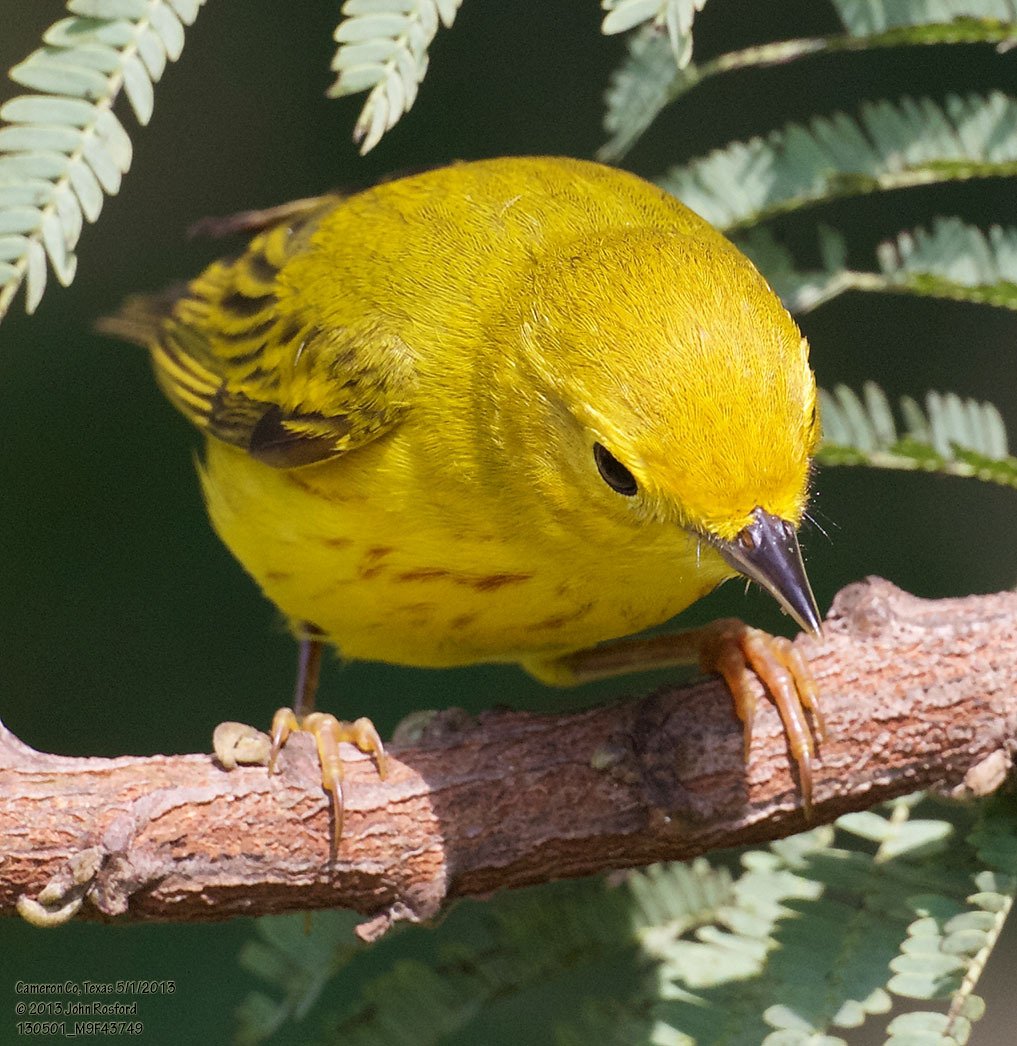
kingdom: Animalia
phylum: Chordata
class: Aves
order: Passeriformes
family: Parulidae
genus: Setophaga
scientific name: Setophaga petechia
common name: Yellow warbler
